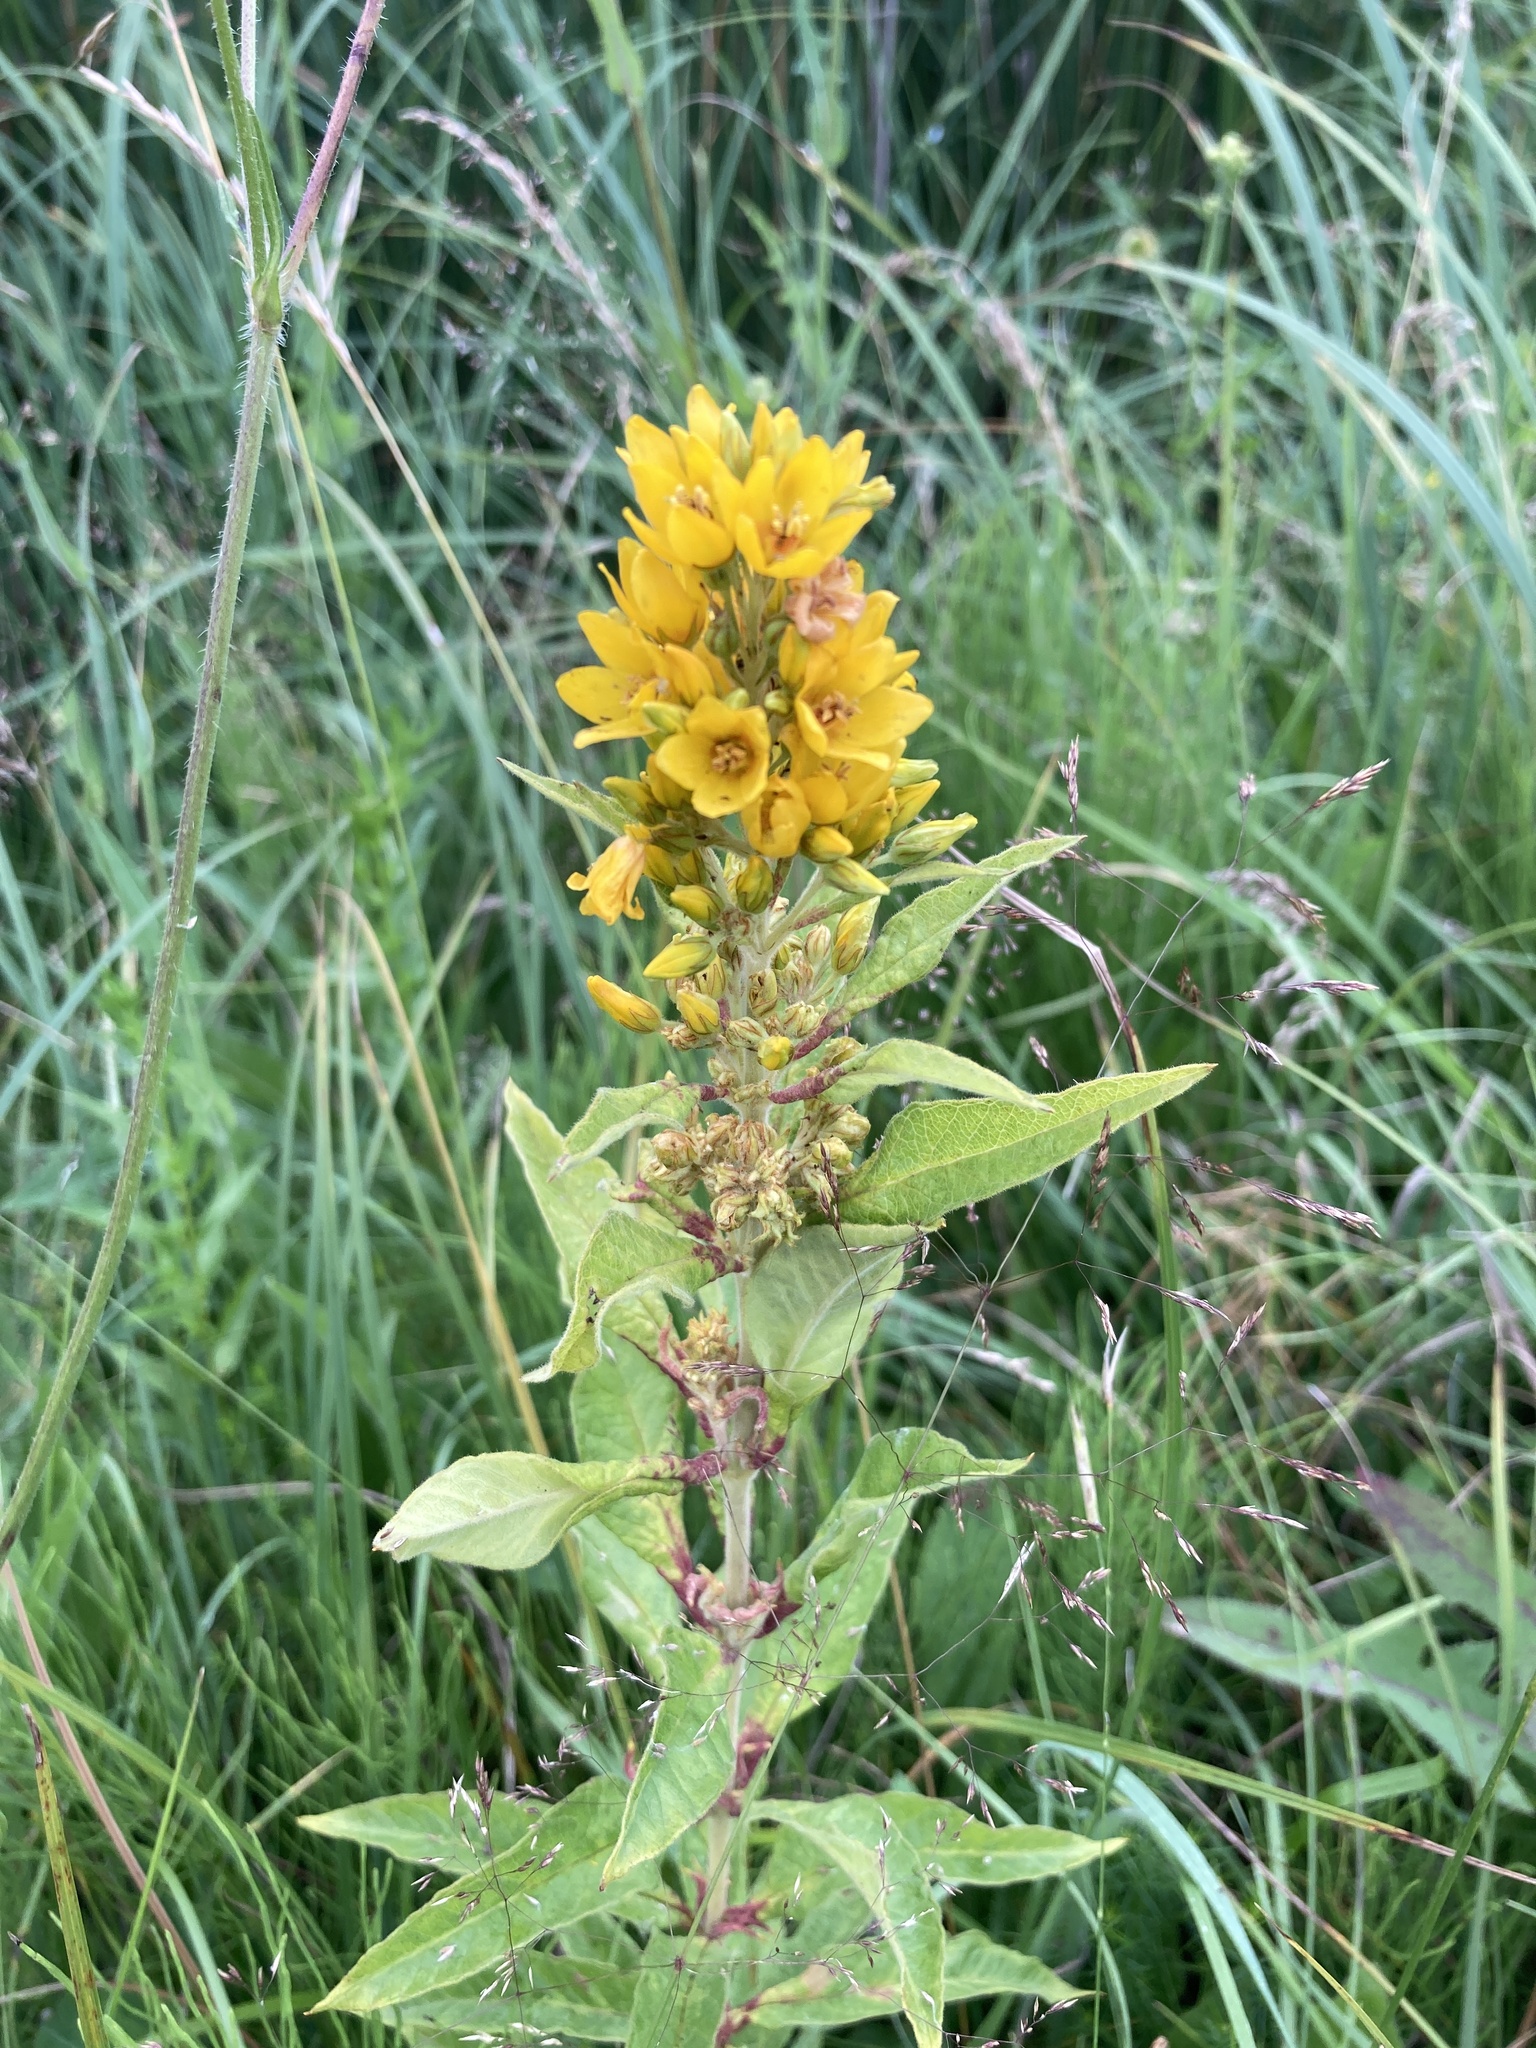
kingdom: Plantae
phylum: Tracheophyta
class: Magnoliopsida
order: Ericales
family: Primulaceae
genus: Lysimachia
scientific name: Lysimachia vulgaris
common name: Yellow loosestrife
